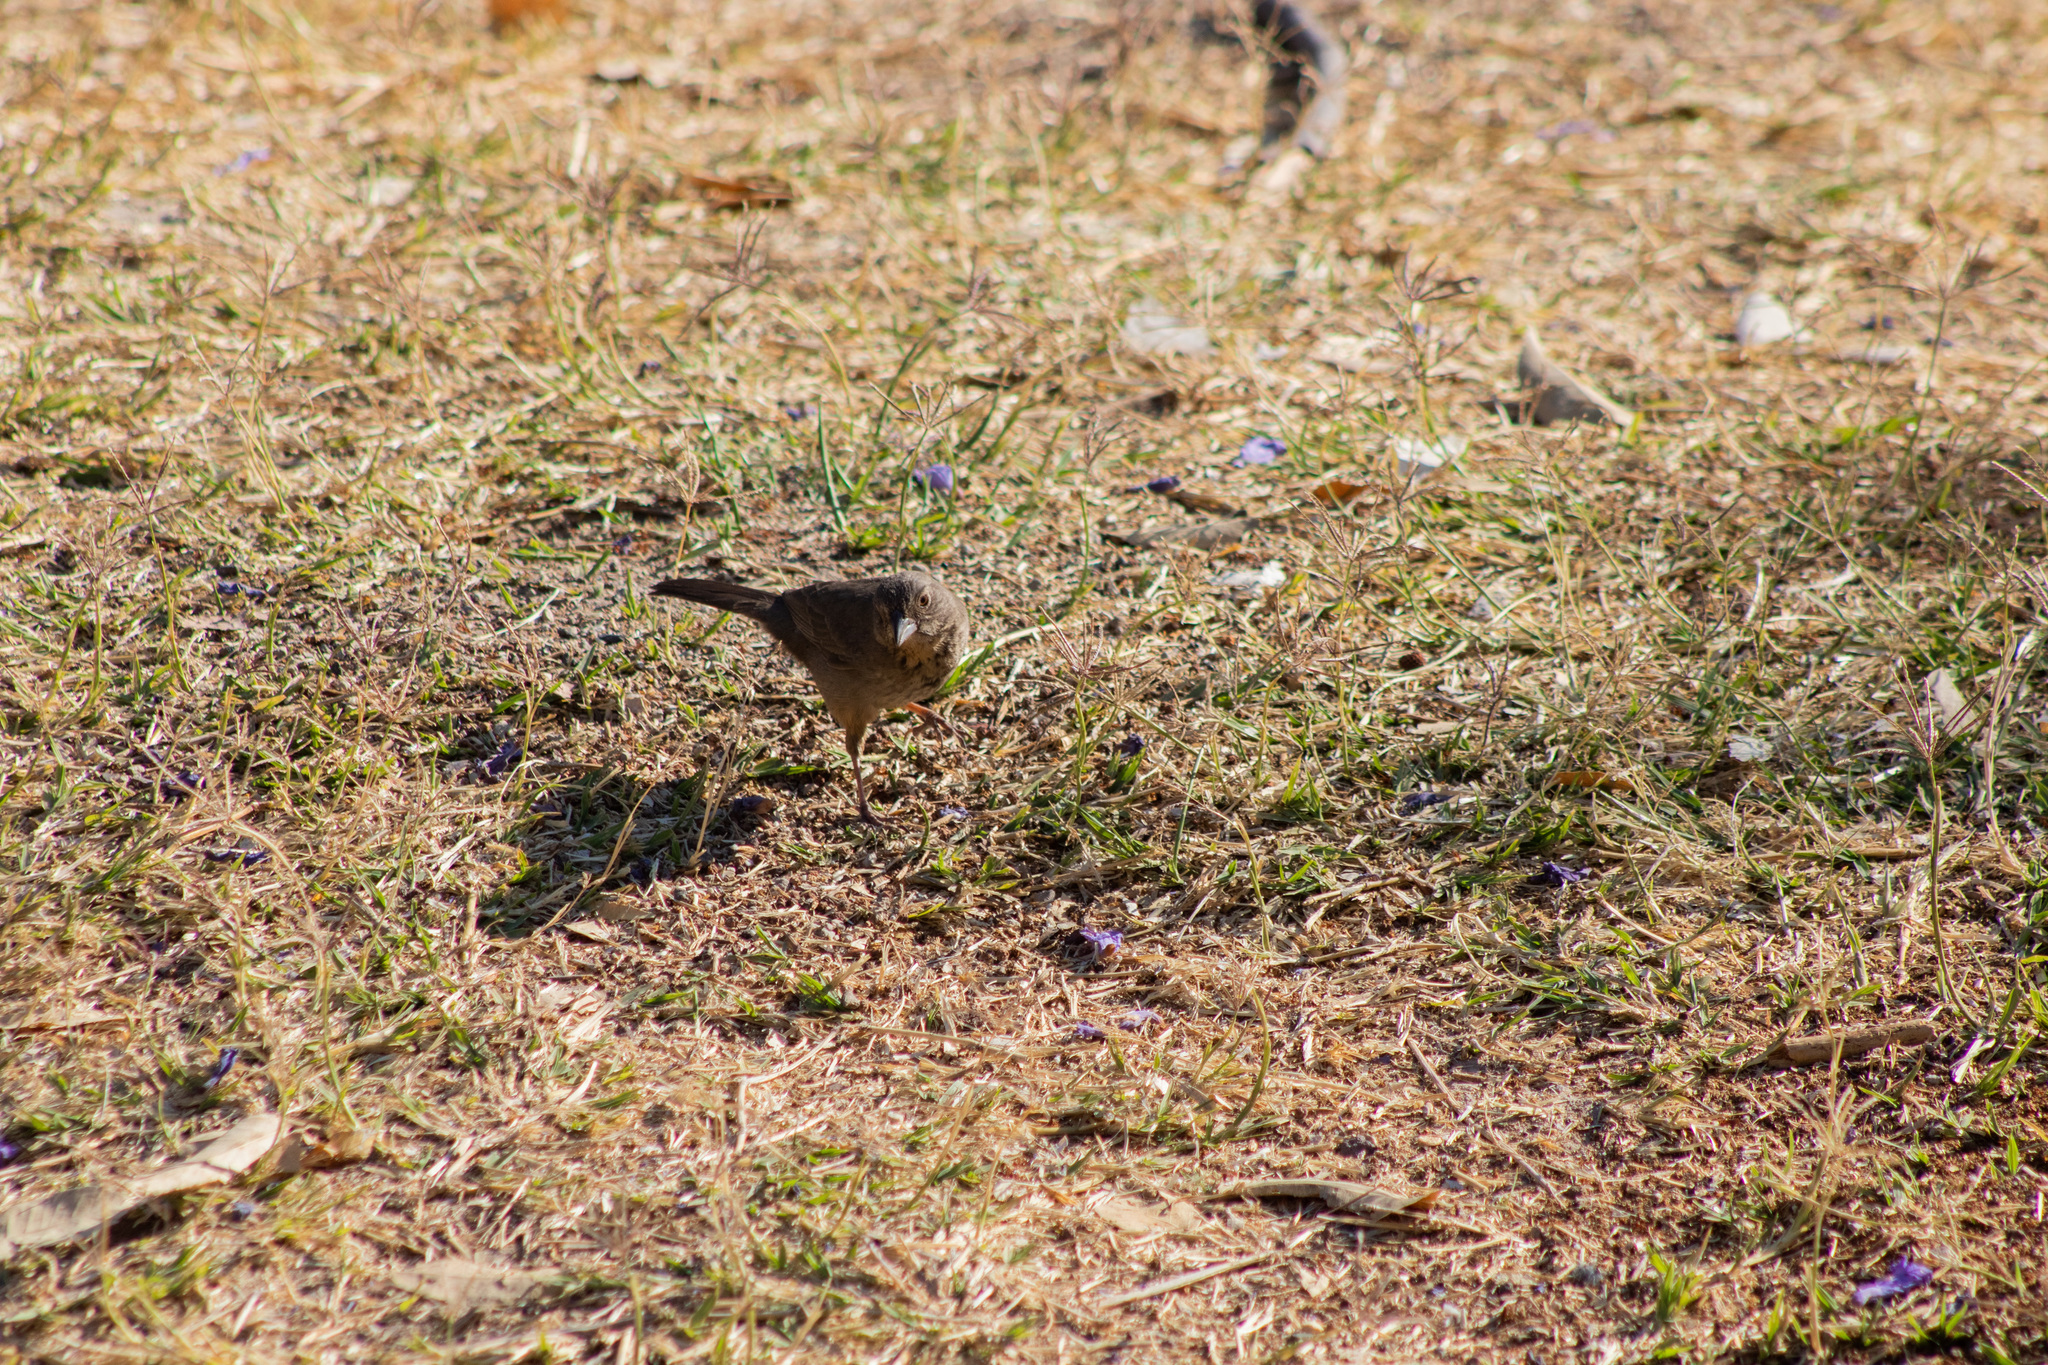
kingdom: Animalia
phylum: Chordata
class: Aves
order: Passeriformes
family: Passerellidae
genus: Melozone
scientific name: Melozone fusca
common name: Canyon towhee
